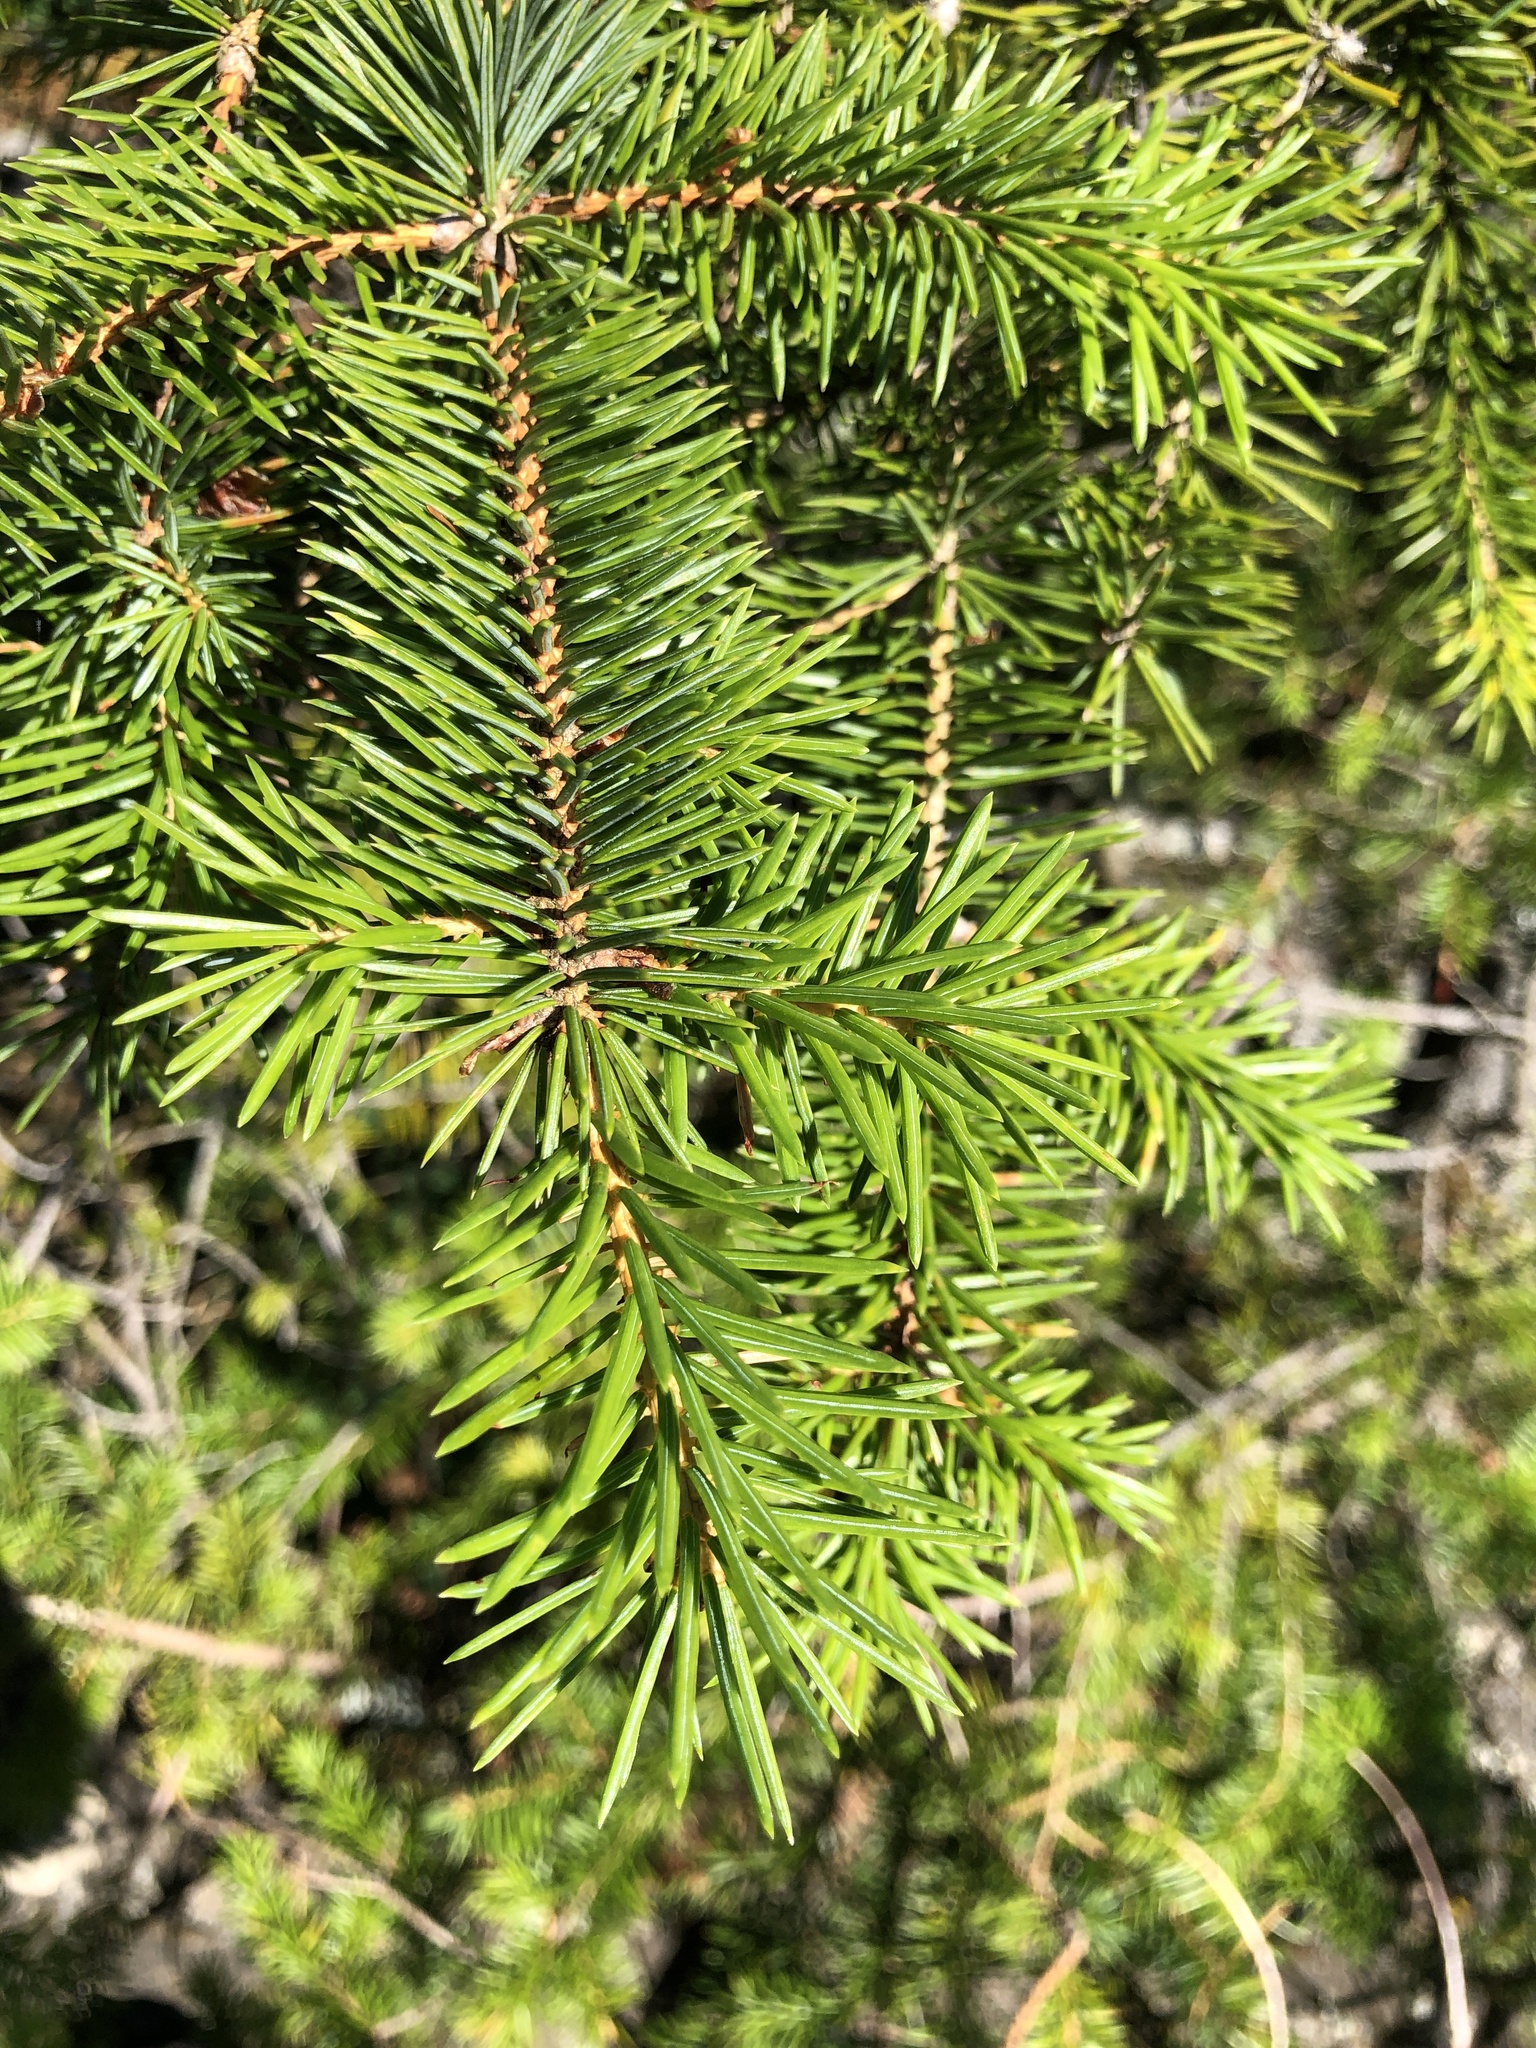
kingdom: Plantae
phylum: Tracheophyta
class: Pinopsida
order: Pinales
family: Pinaceae
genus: Picea
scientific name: Picea sitchensis
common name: Sitka spruce
